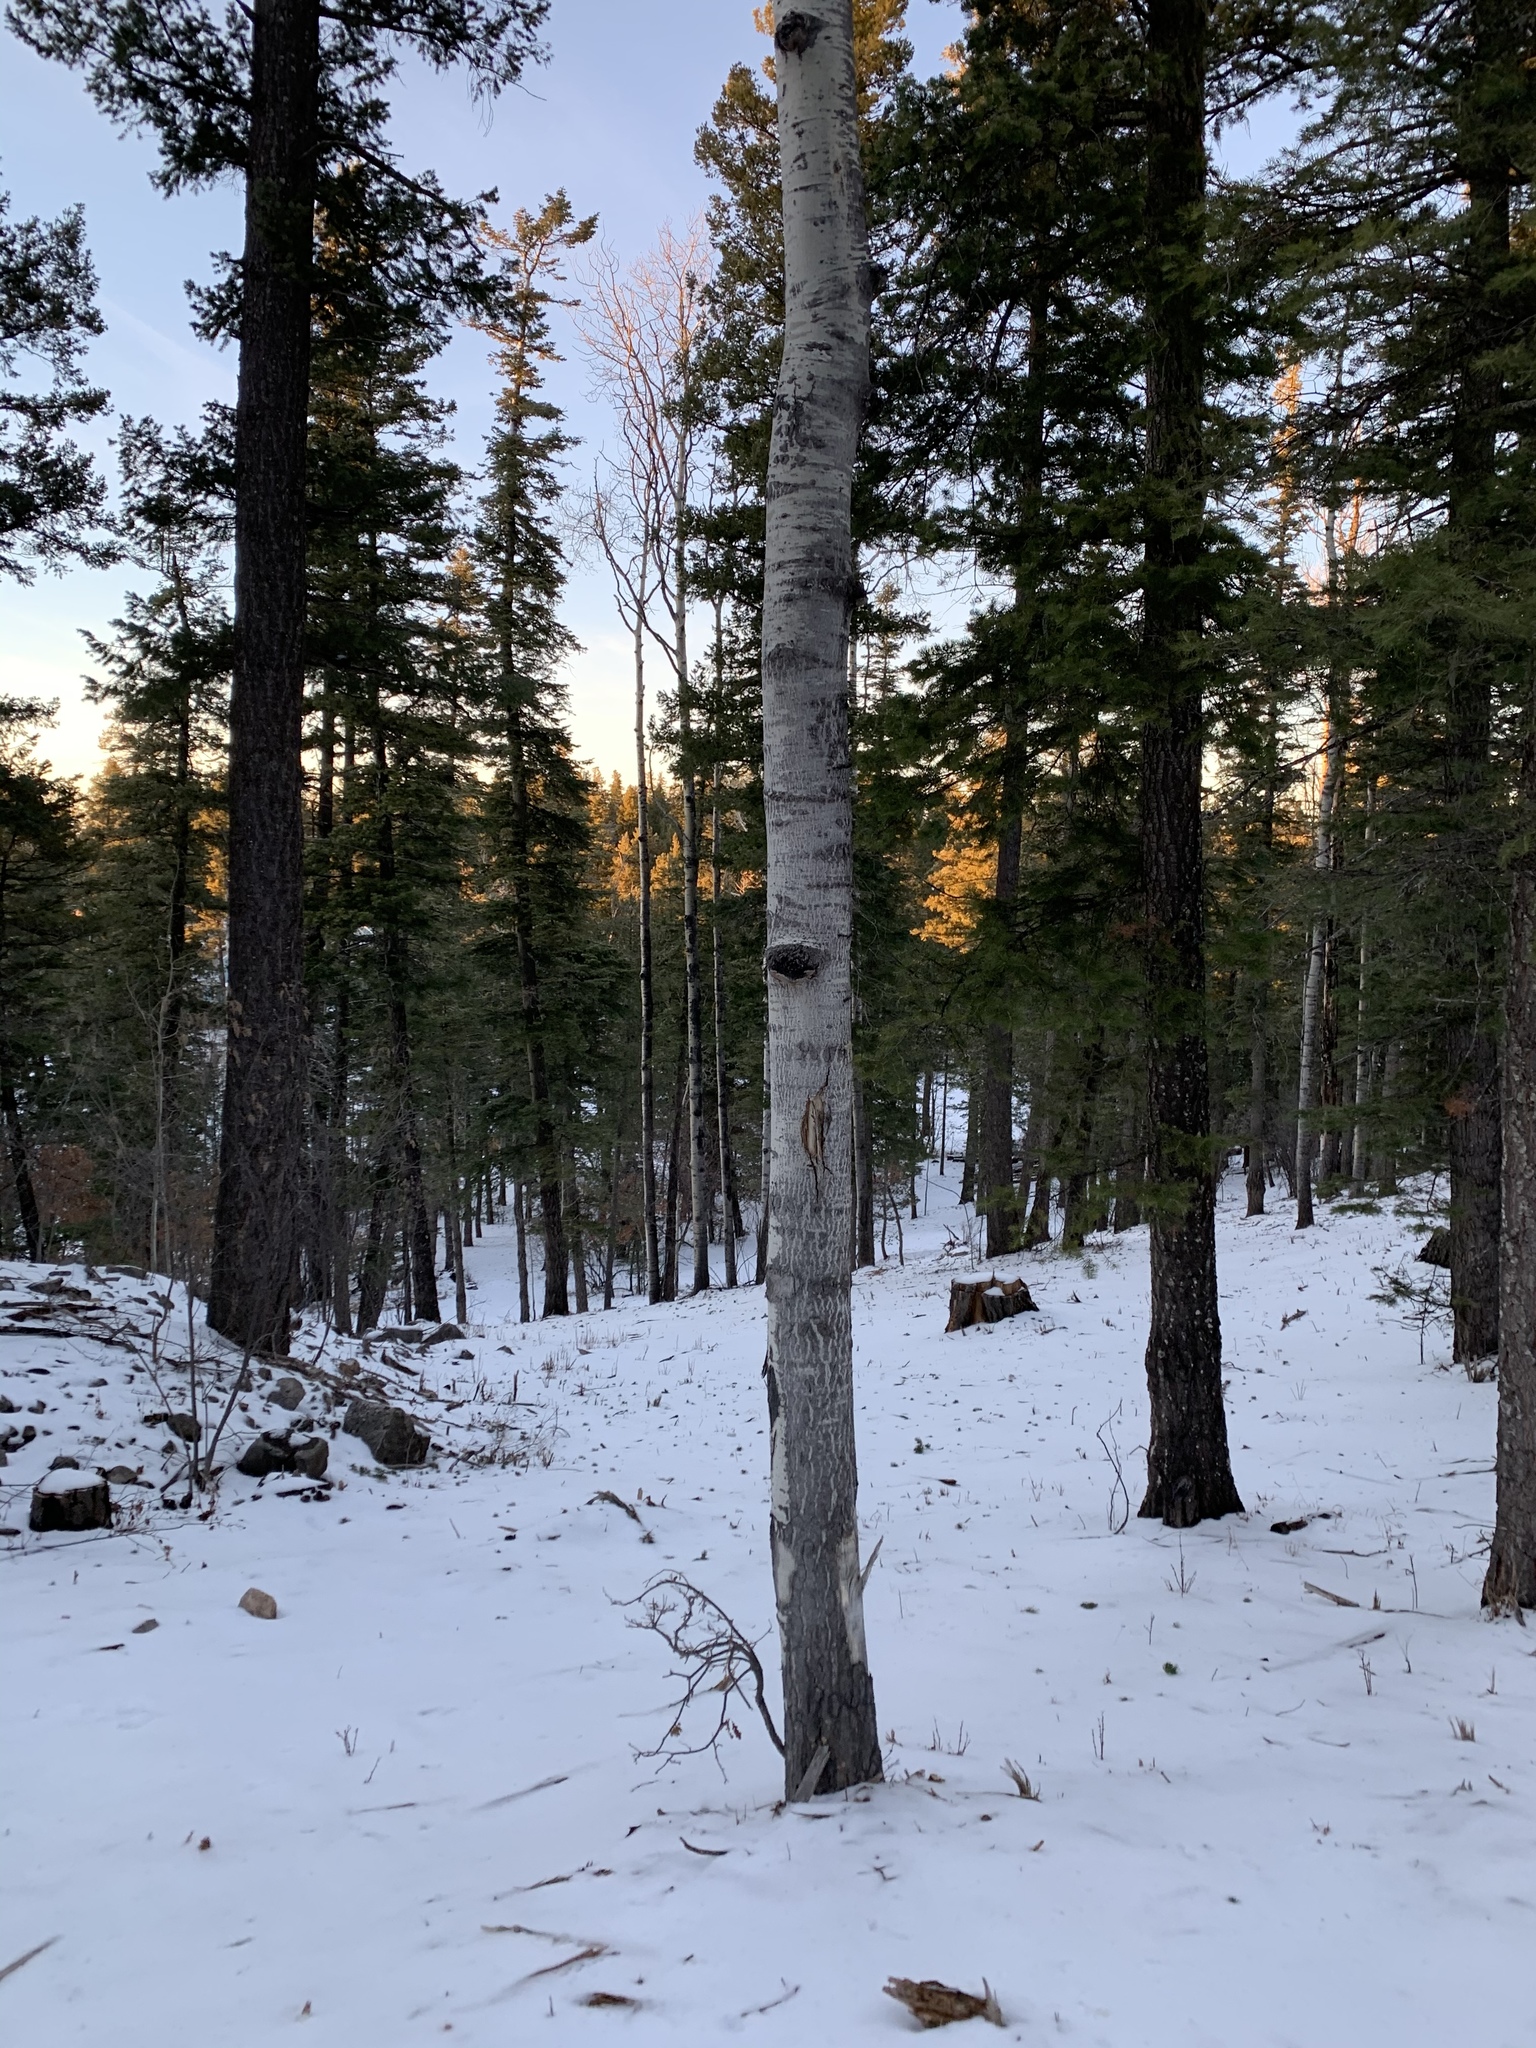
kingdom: Plantae
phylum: Tracheophyta
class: Magnoliopsida
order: Malpighiales
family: Salicaceae
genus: Populus
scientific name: Populus tremuloides
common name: Quaking aspen
